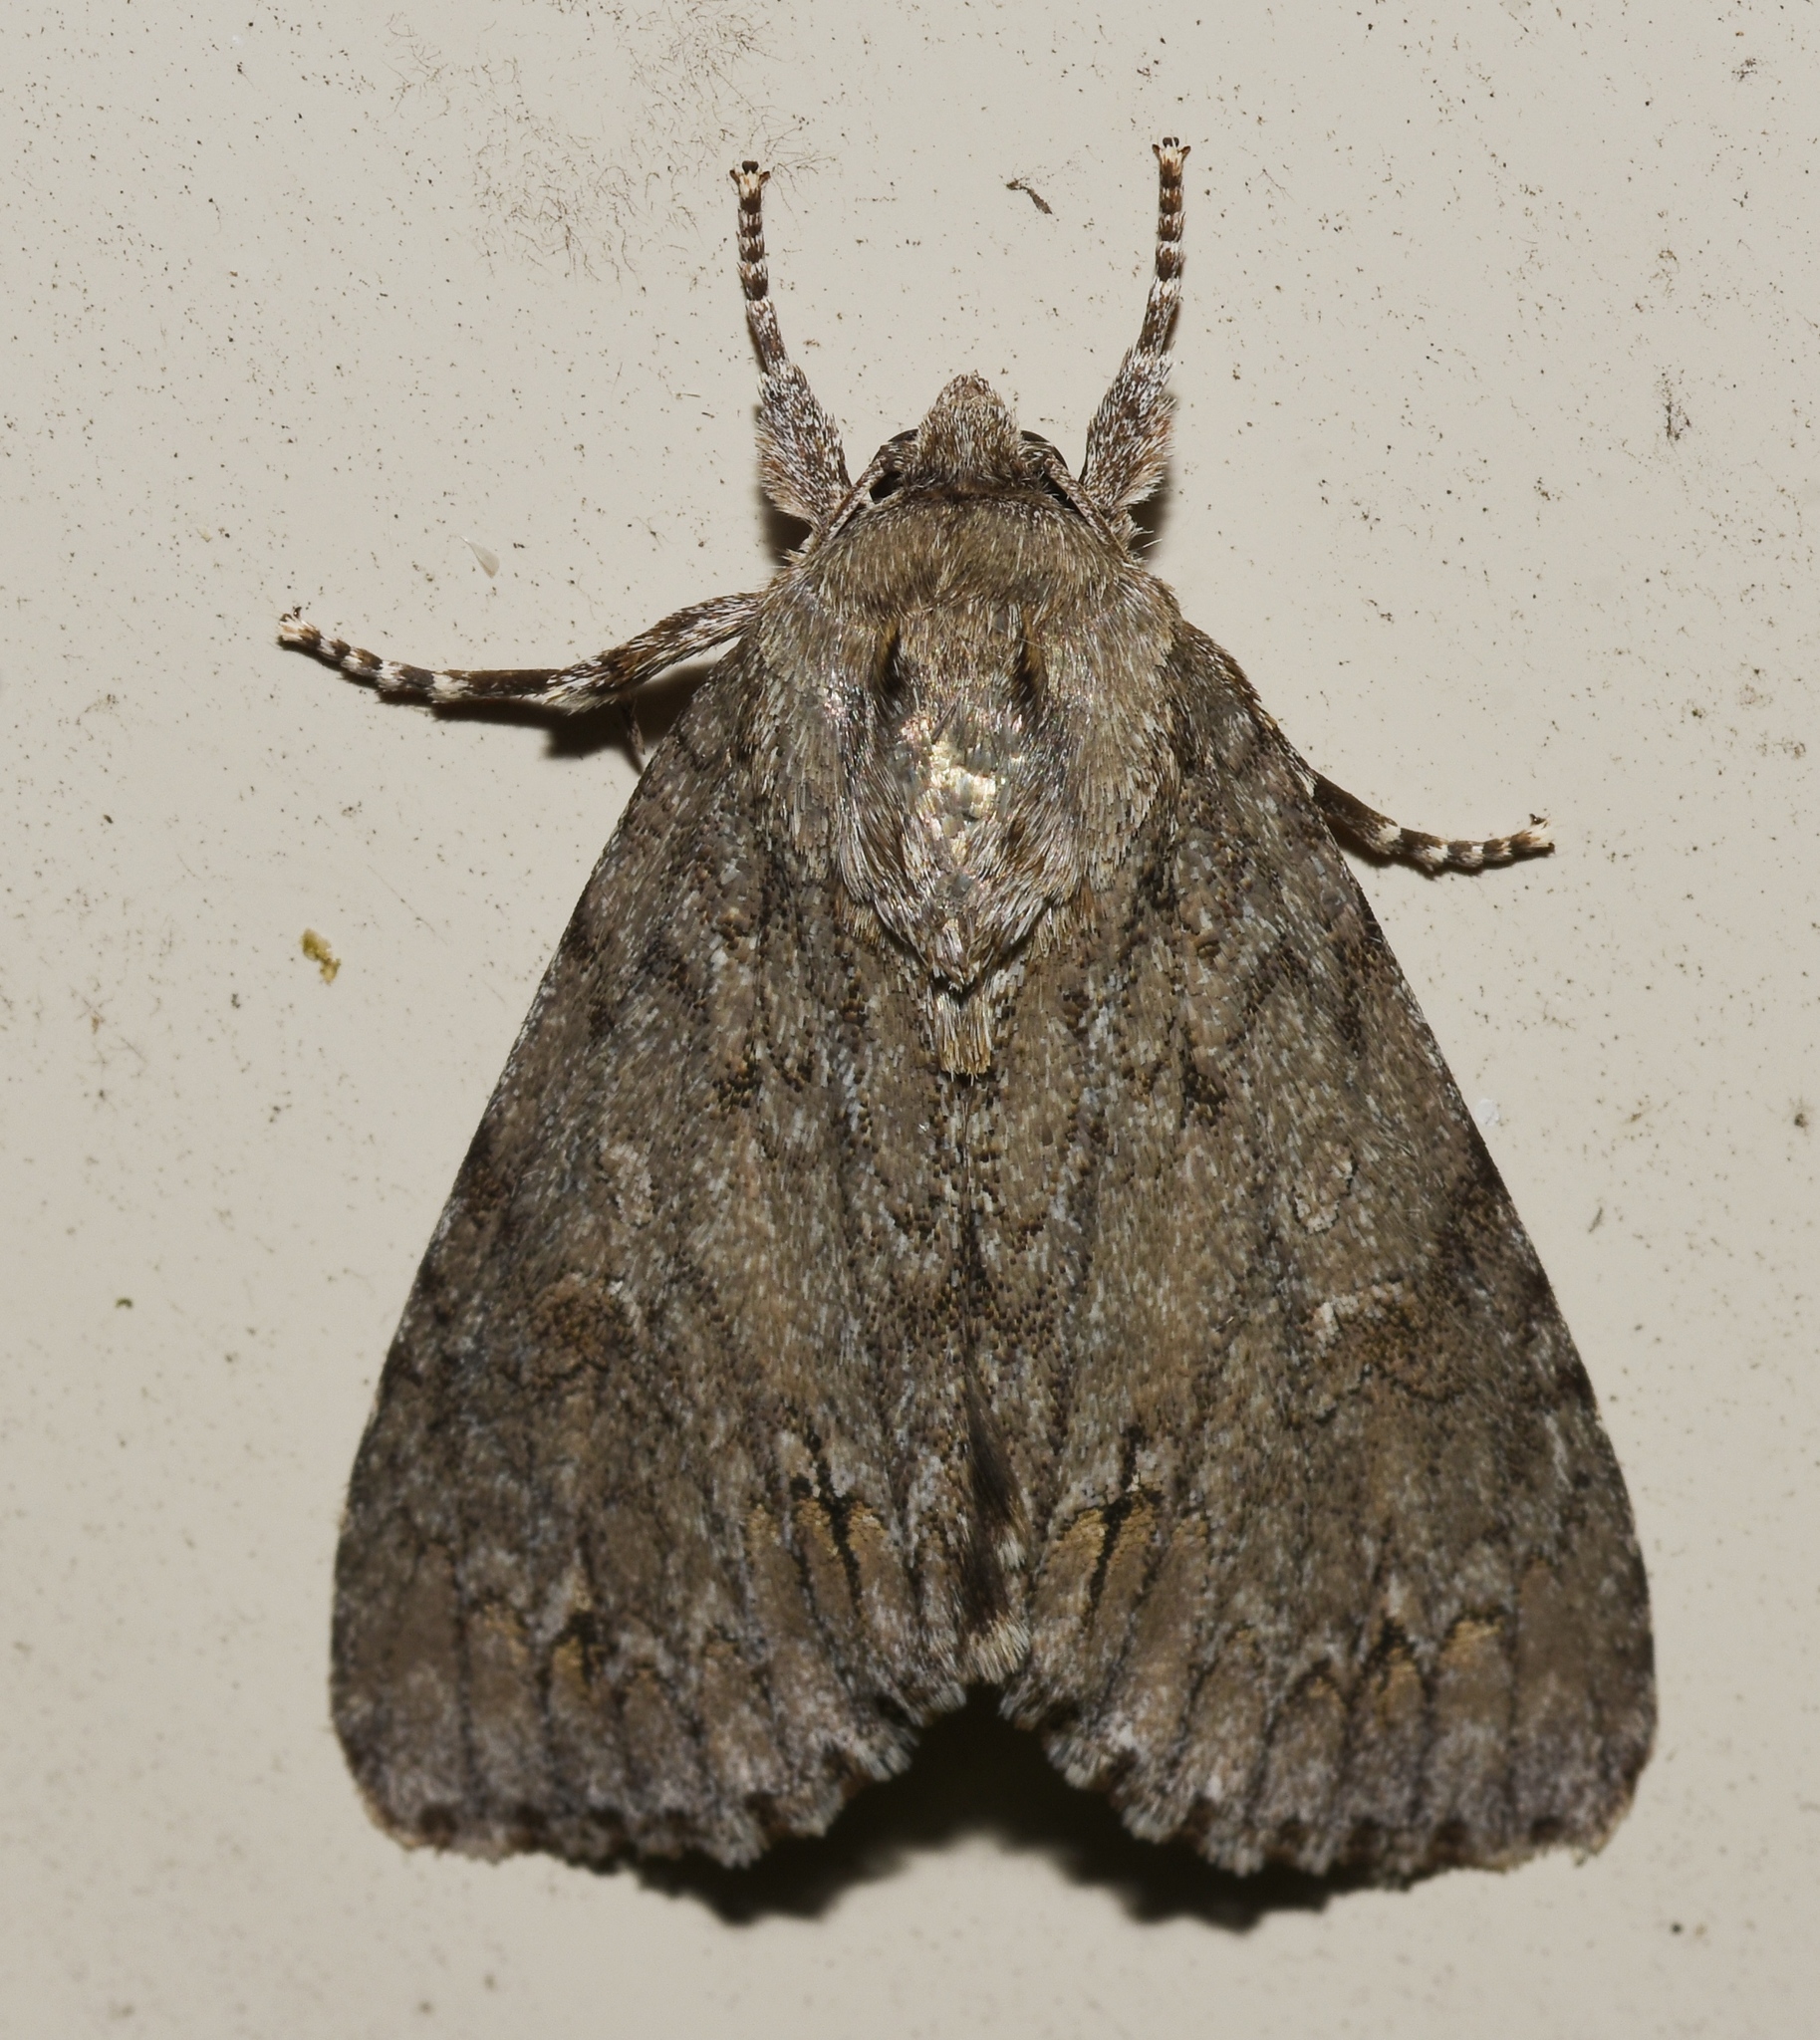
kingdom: Animalia
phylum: Arthropoda
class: Insecta
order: Lepidoptera
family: Noctuidae
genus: Acronicta
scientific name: Acronicta americana
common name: American dagger
